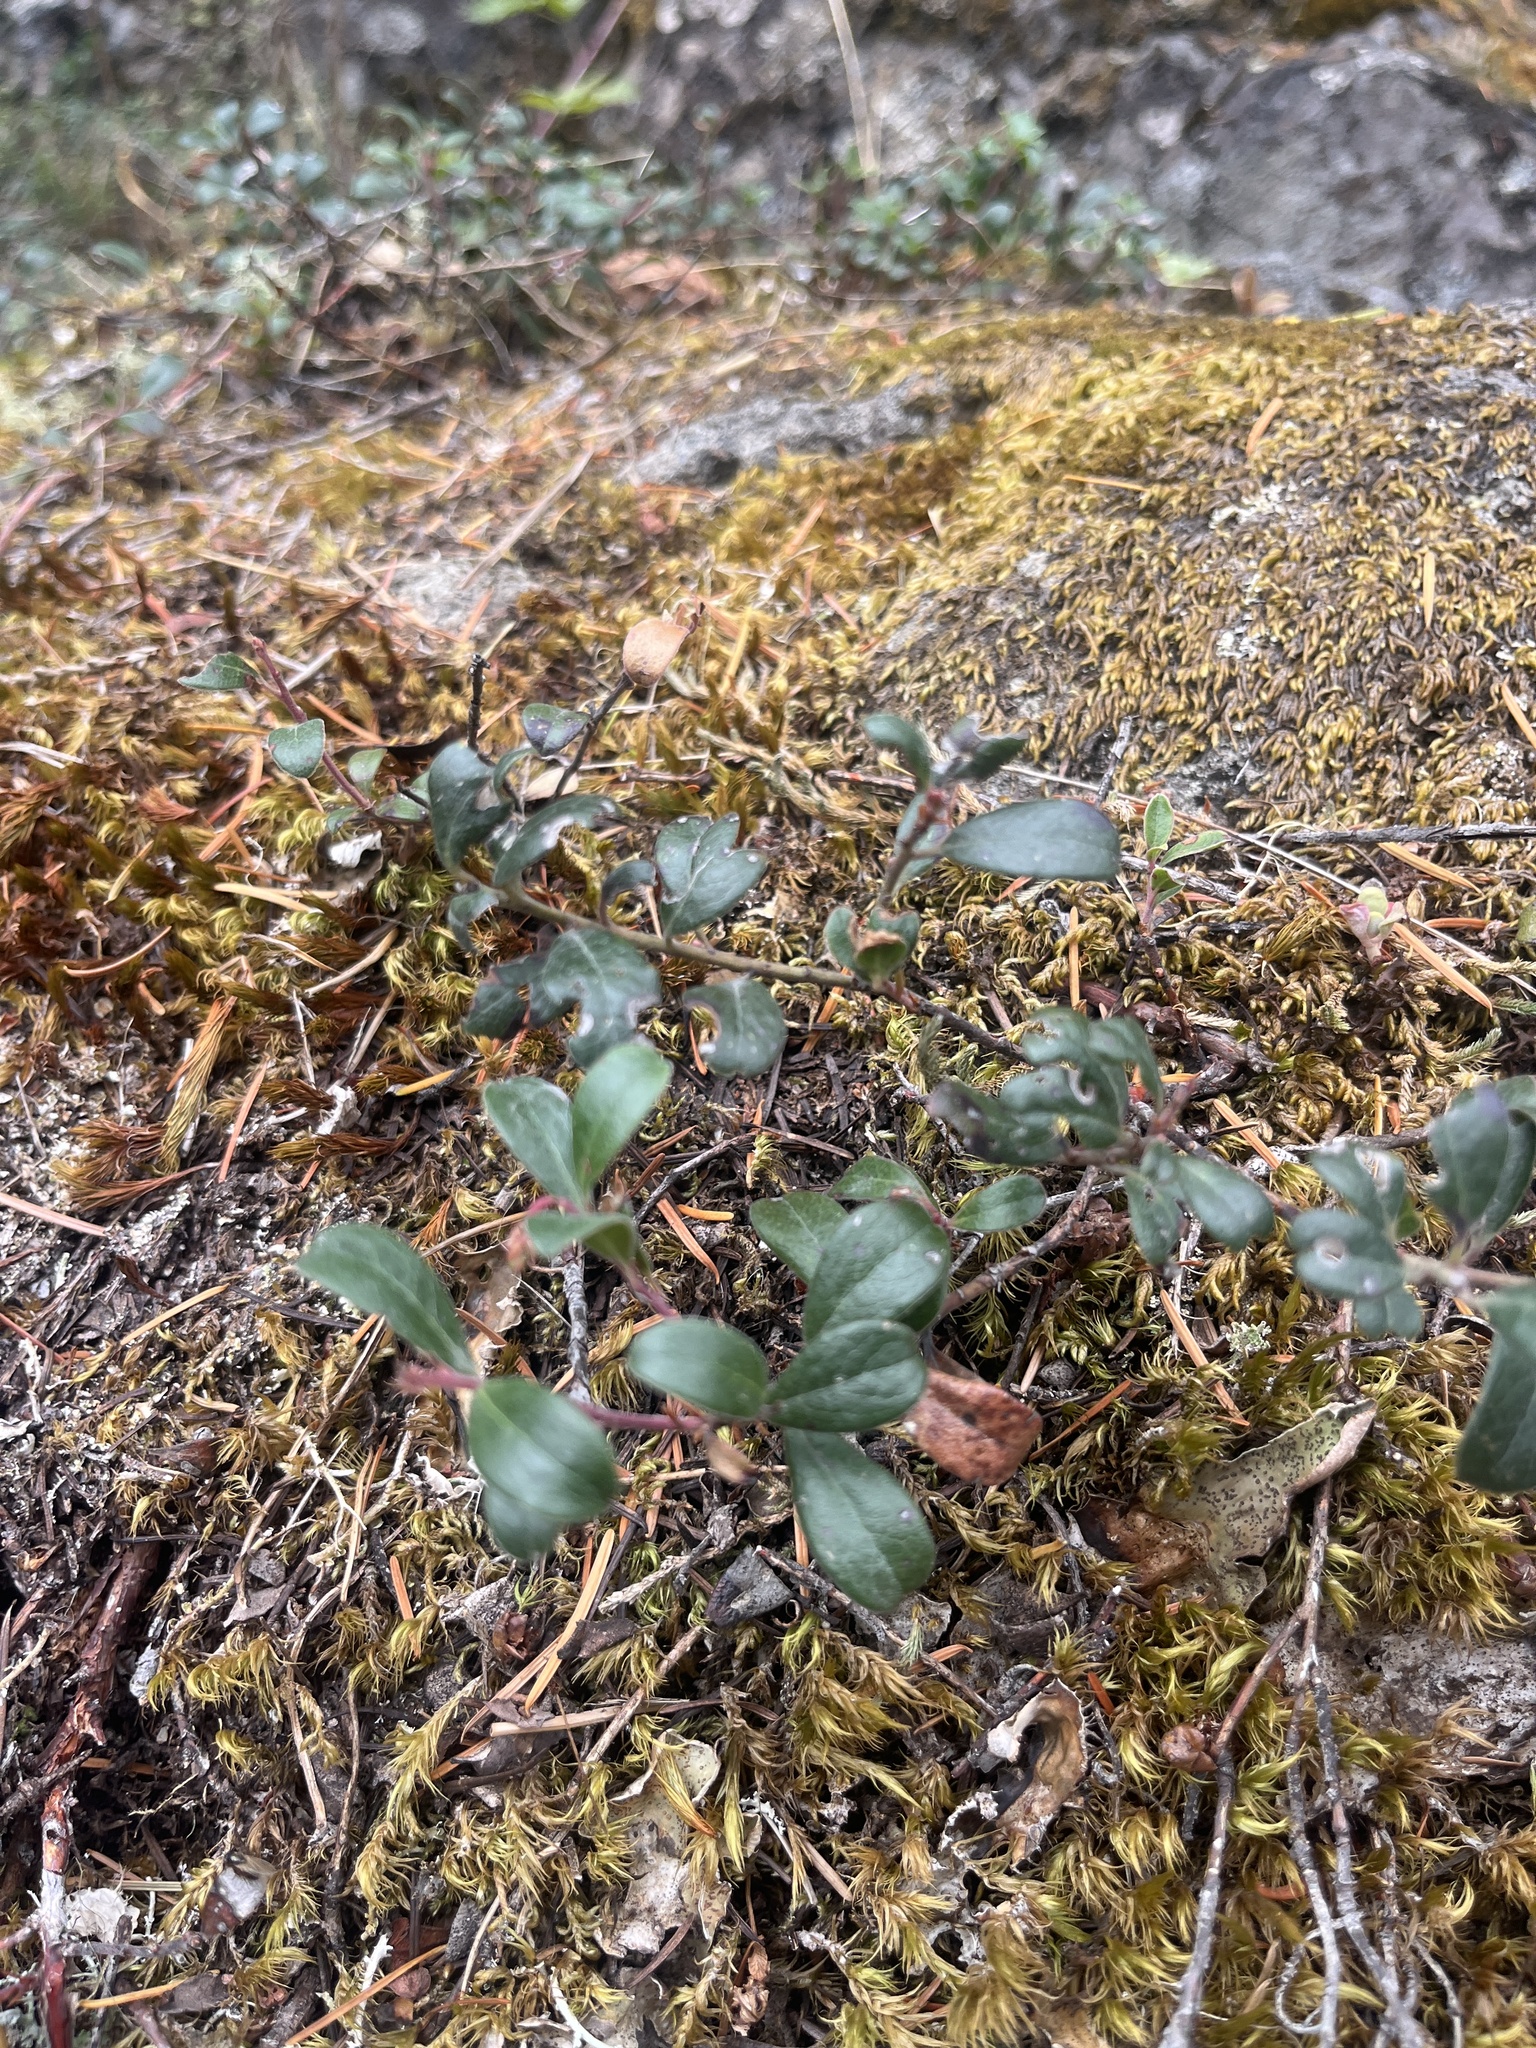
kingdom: Plantae
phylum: Tracheophyta
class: Magnoliopsida
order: Ericales
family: Ericaceae
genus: Arctostaphylos
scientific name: Arctostaphylos uva-ursi
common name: Bearberry
